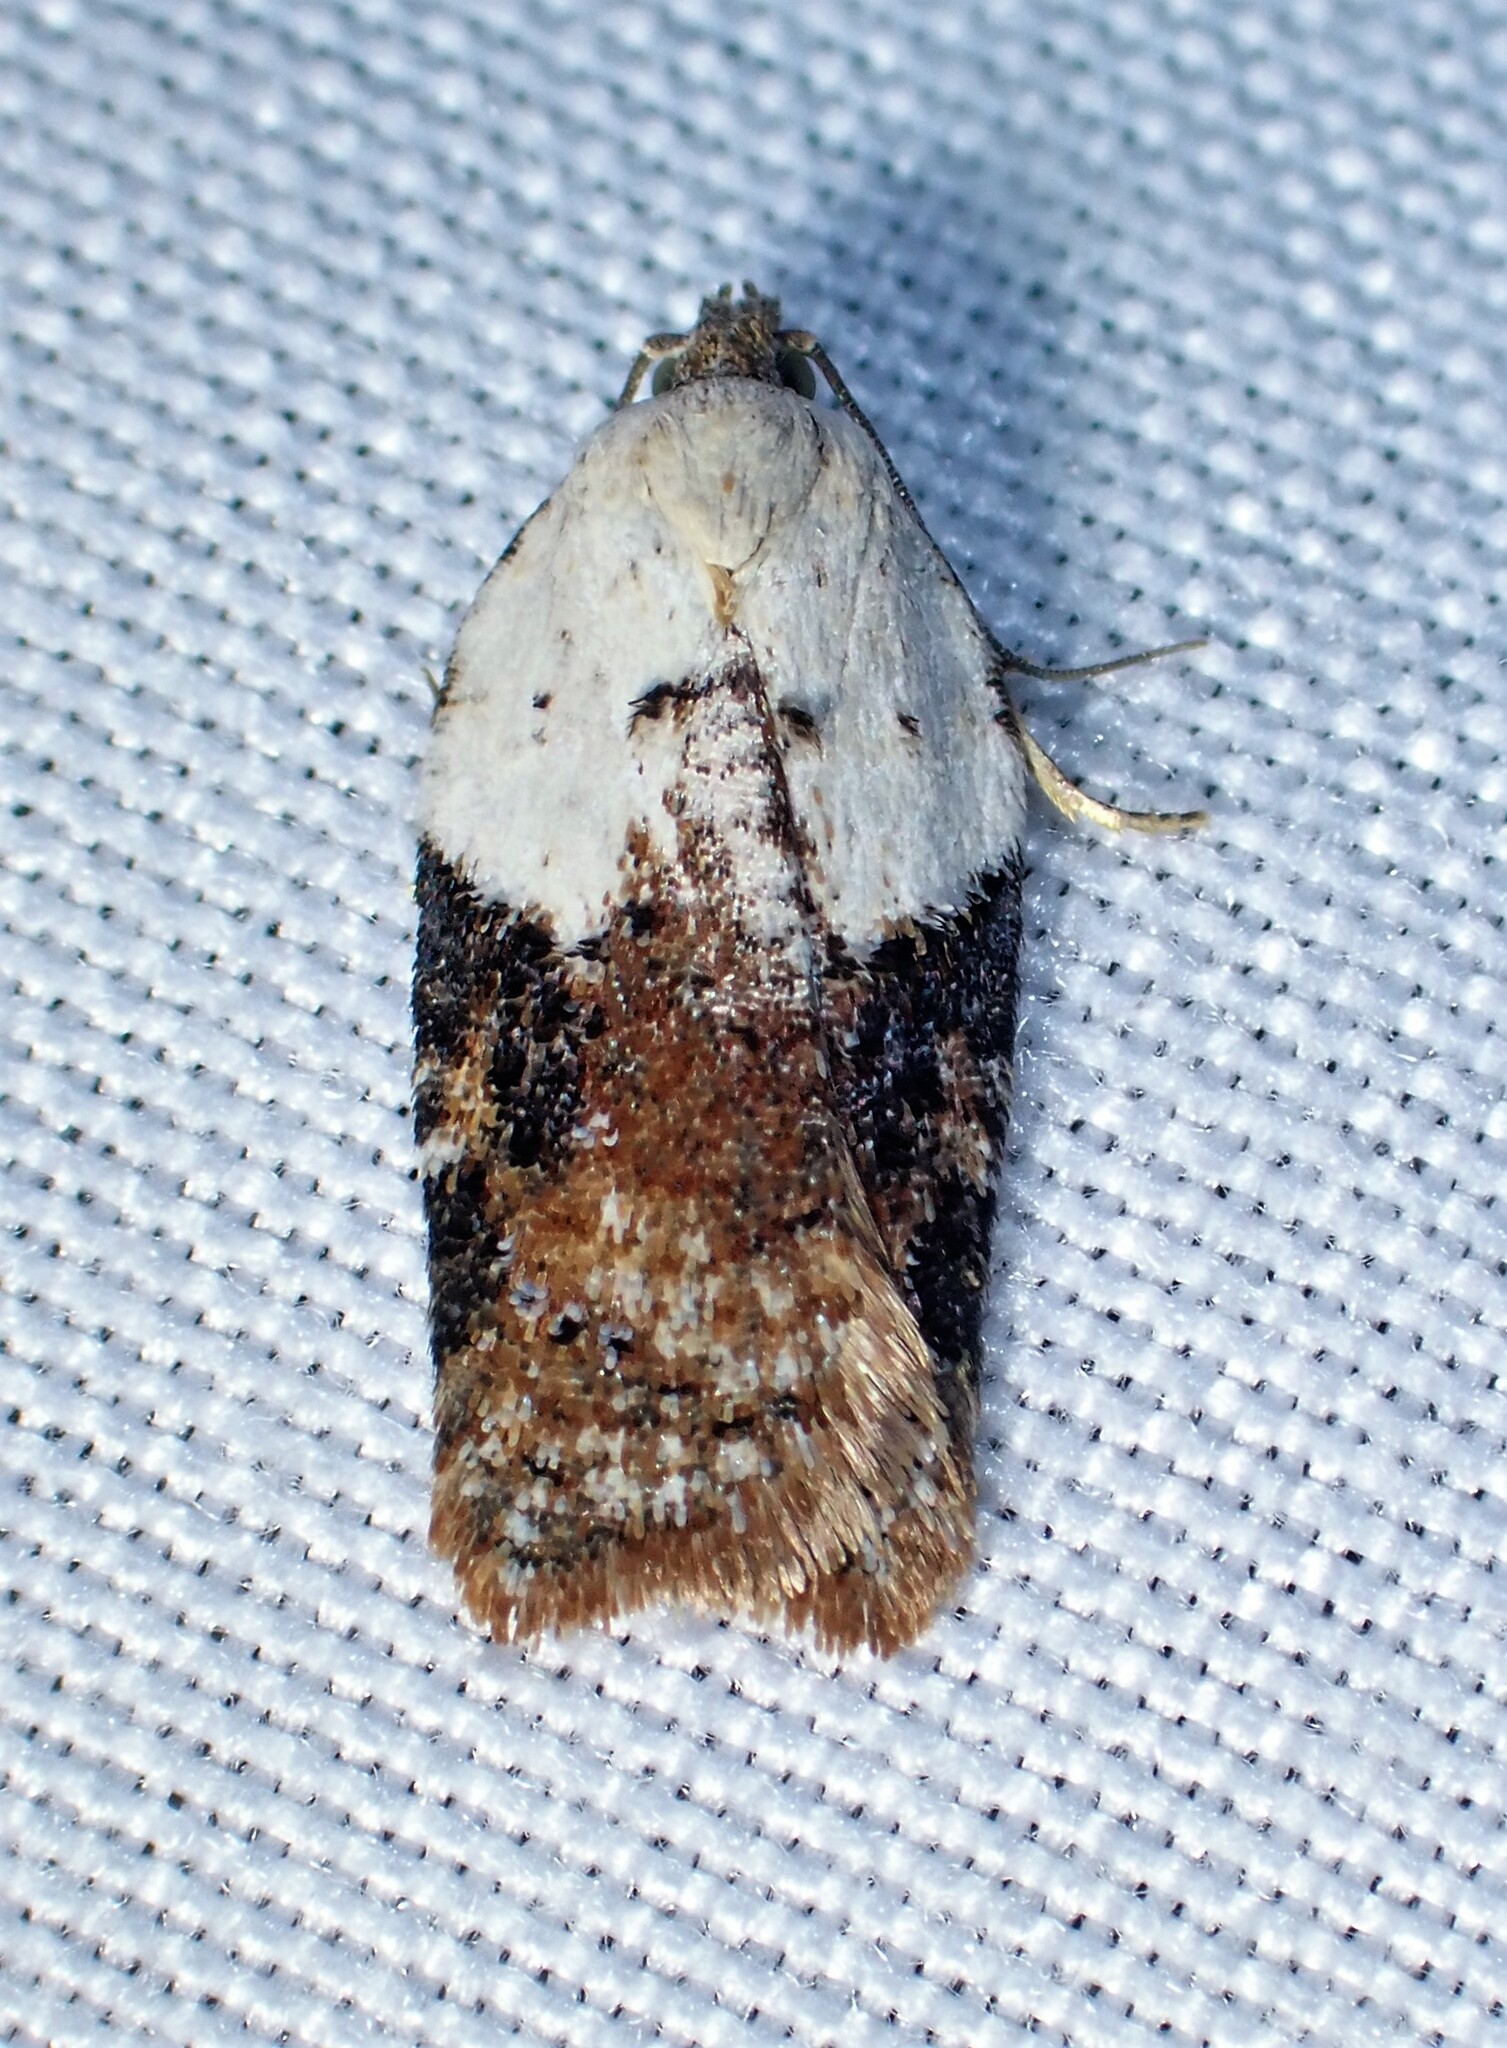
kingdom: Animalia
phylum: Arthropoda
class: Insecta
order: Lepidoptera
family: Tortricidae
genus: Acleris
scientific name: Acleris braunana
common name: Alder leafroller
